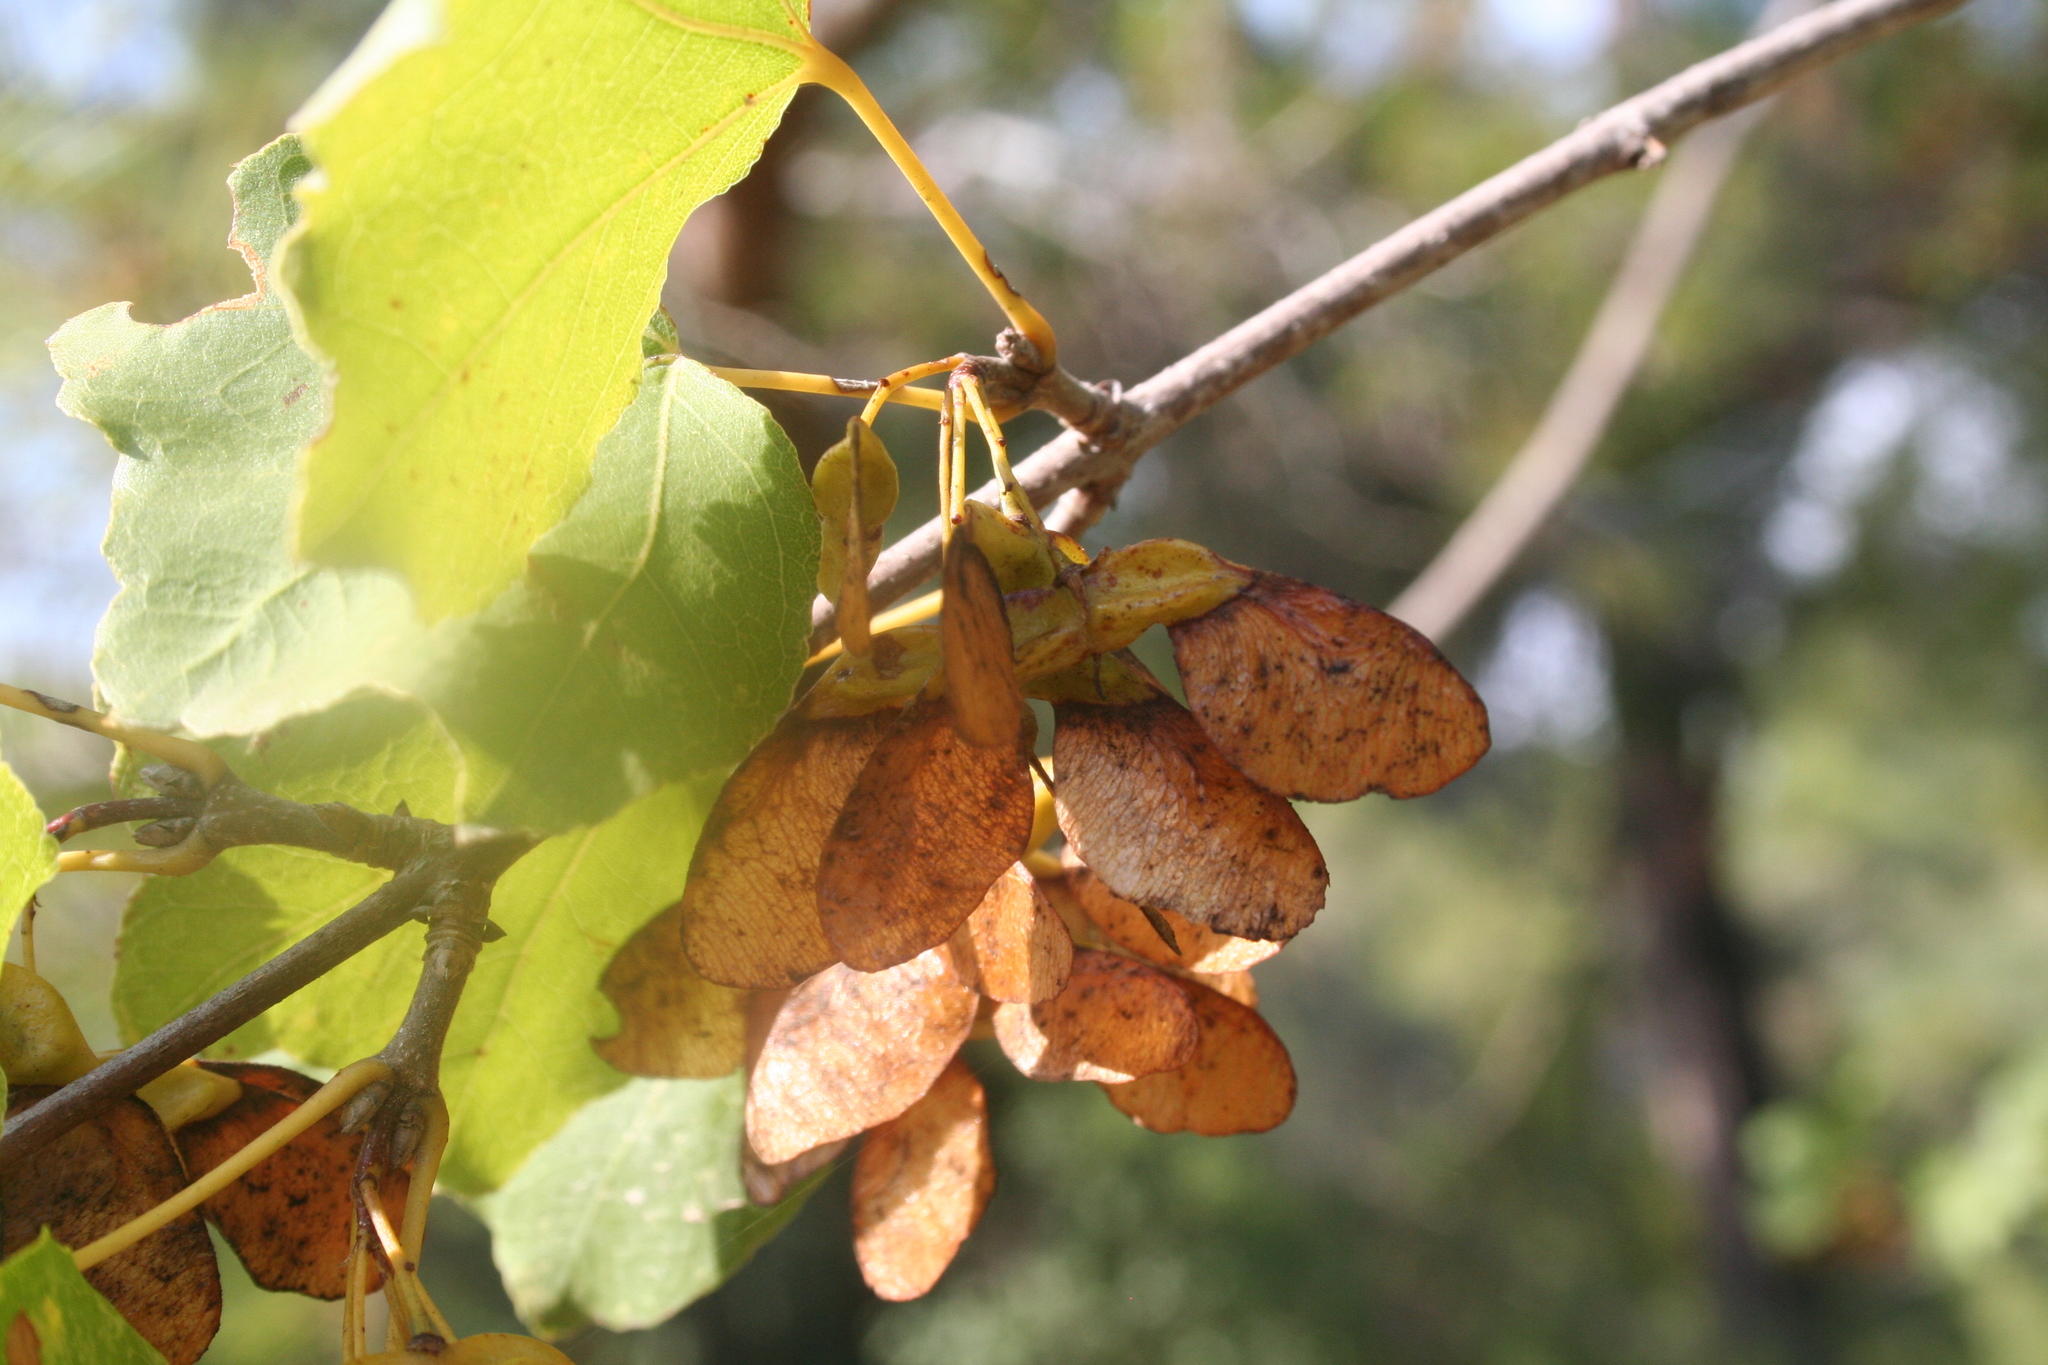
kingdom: Plantae
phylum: Tracheophyta
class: Magnoliopsida
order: Sapindales
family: Sapindaceae
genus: Acer
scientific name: Acer sempervirens
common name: Cretan maple
